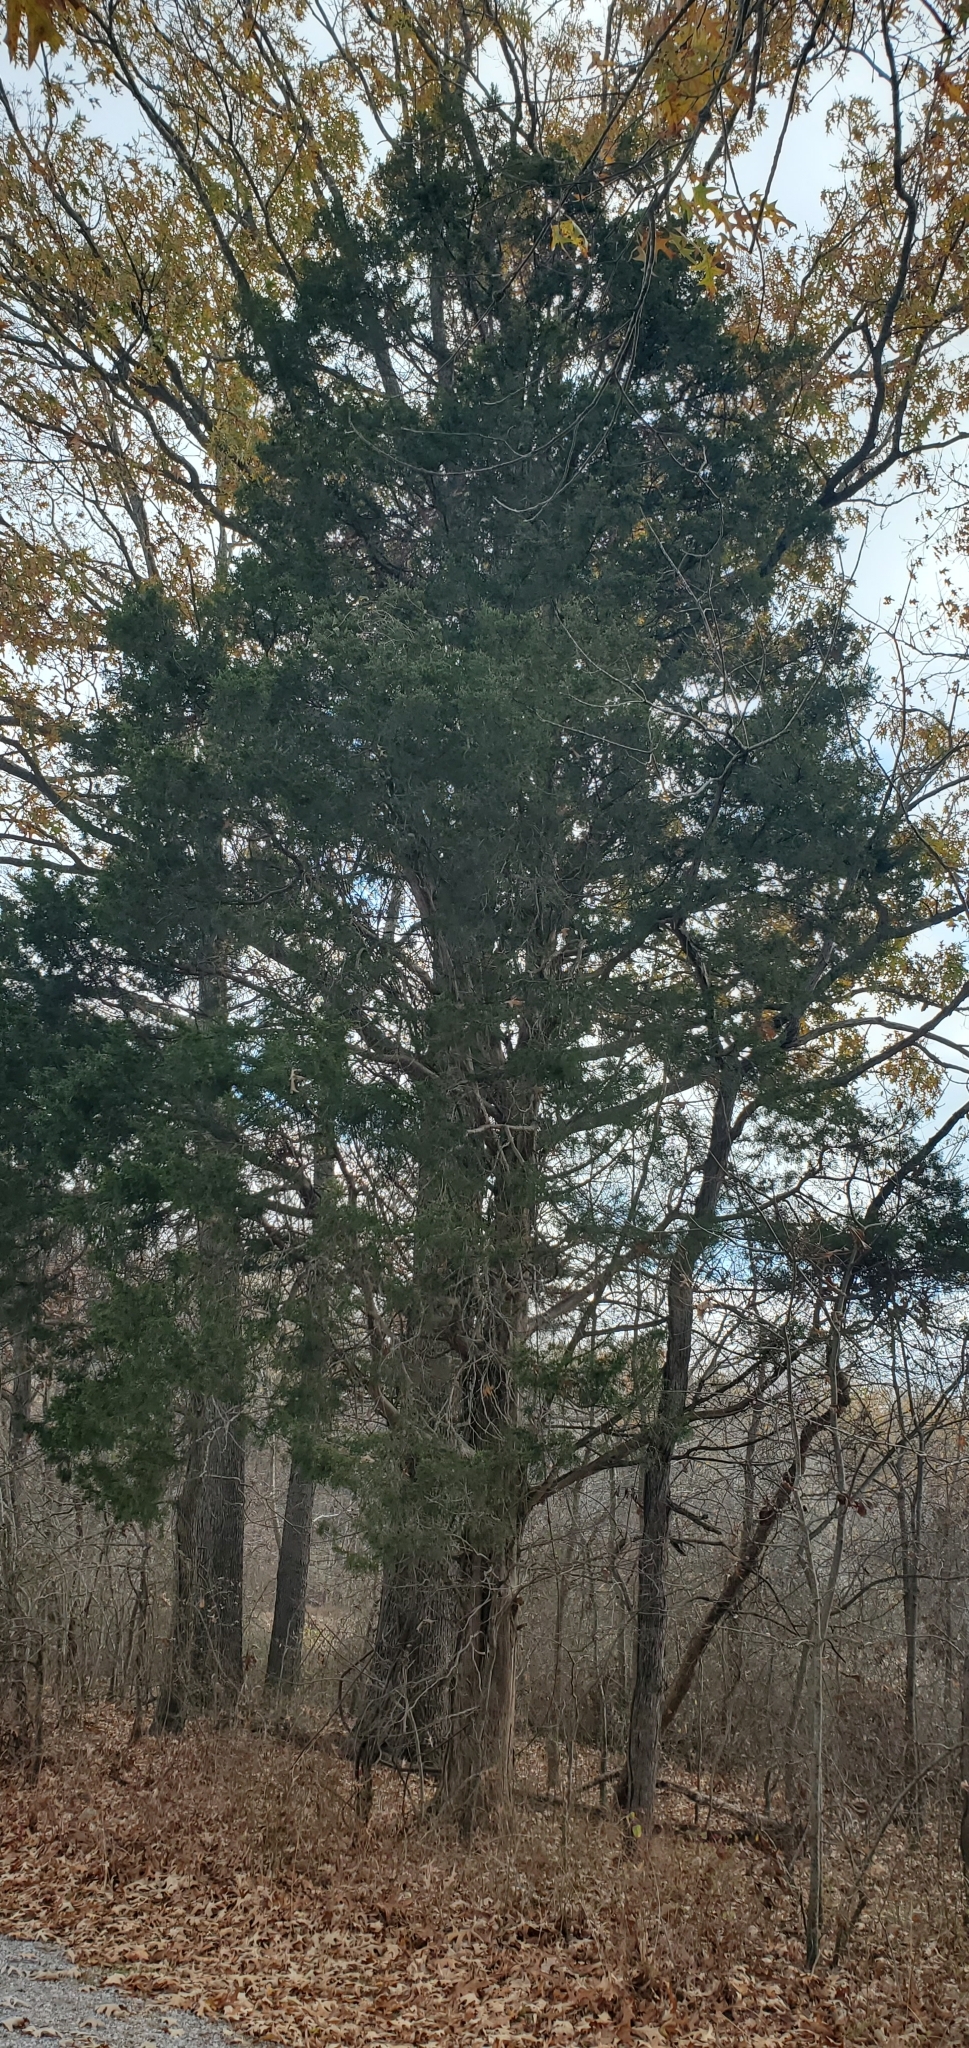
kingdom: Plantae
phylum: Tracheophyta
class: Pinopsida
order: Pinales
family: Cupressaceae
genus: Juniperus
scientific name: Juniperus virginiana
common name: Red juniper
